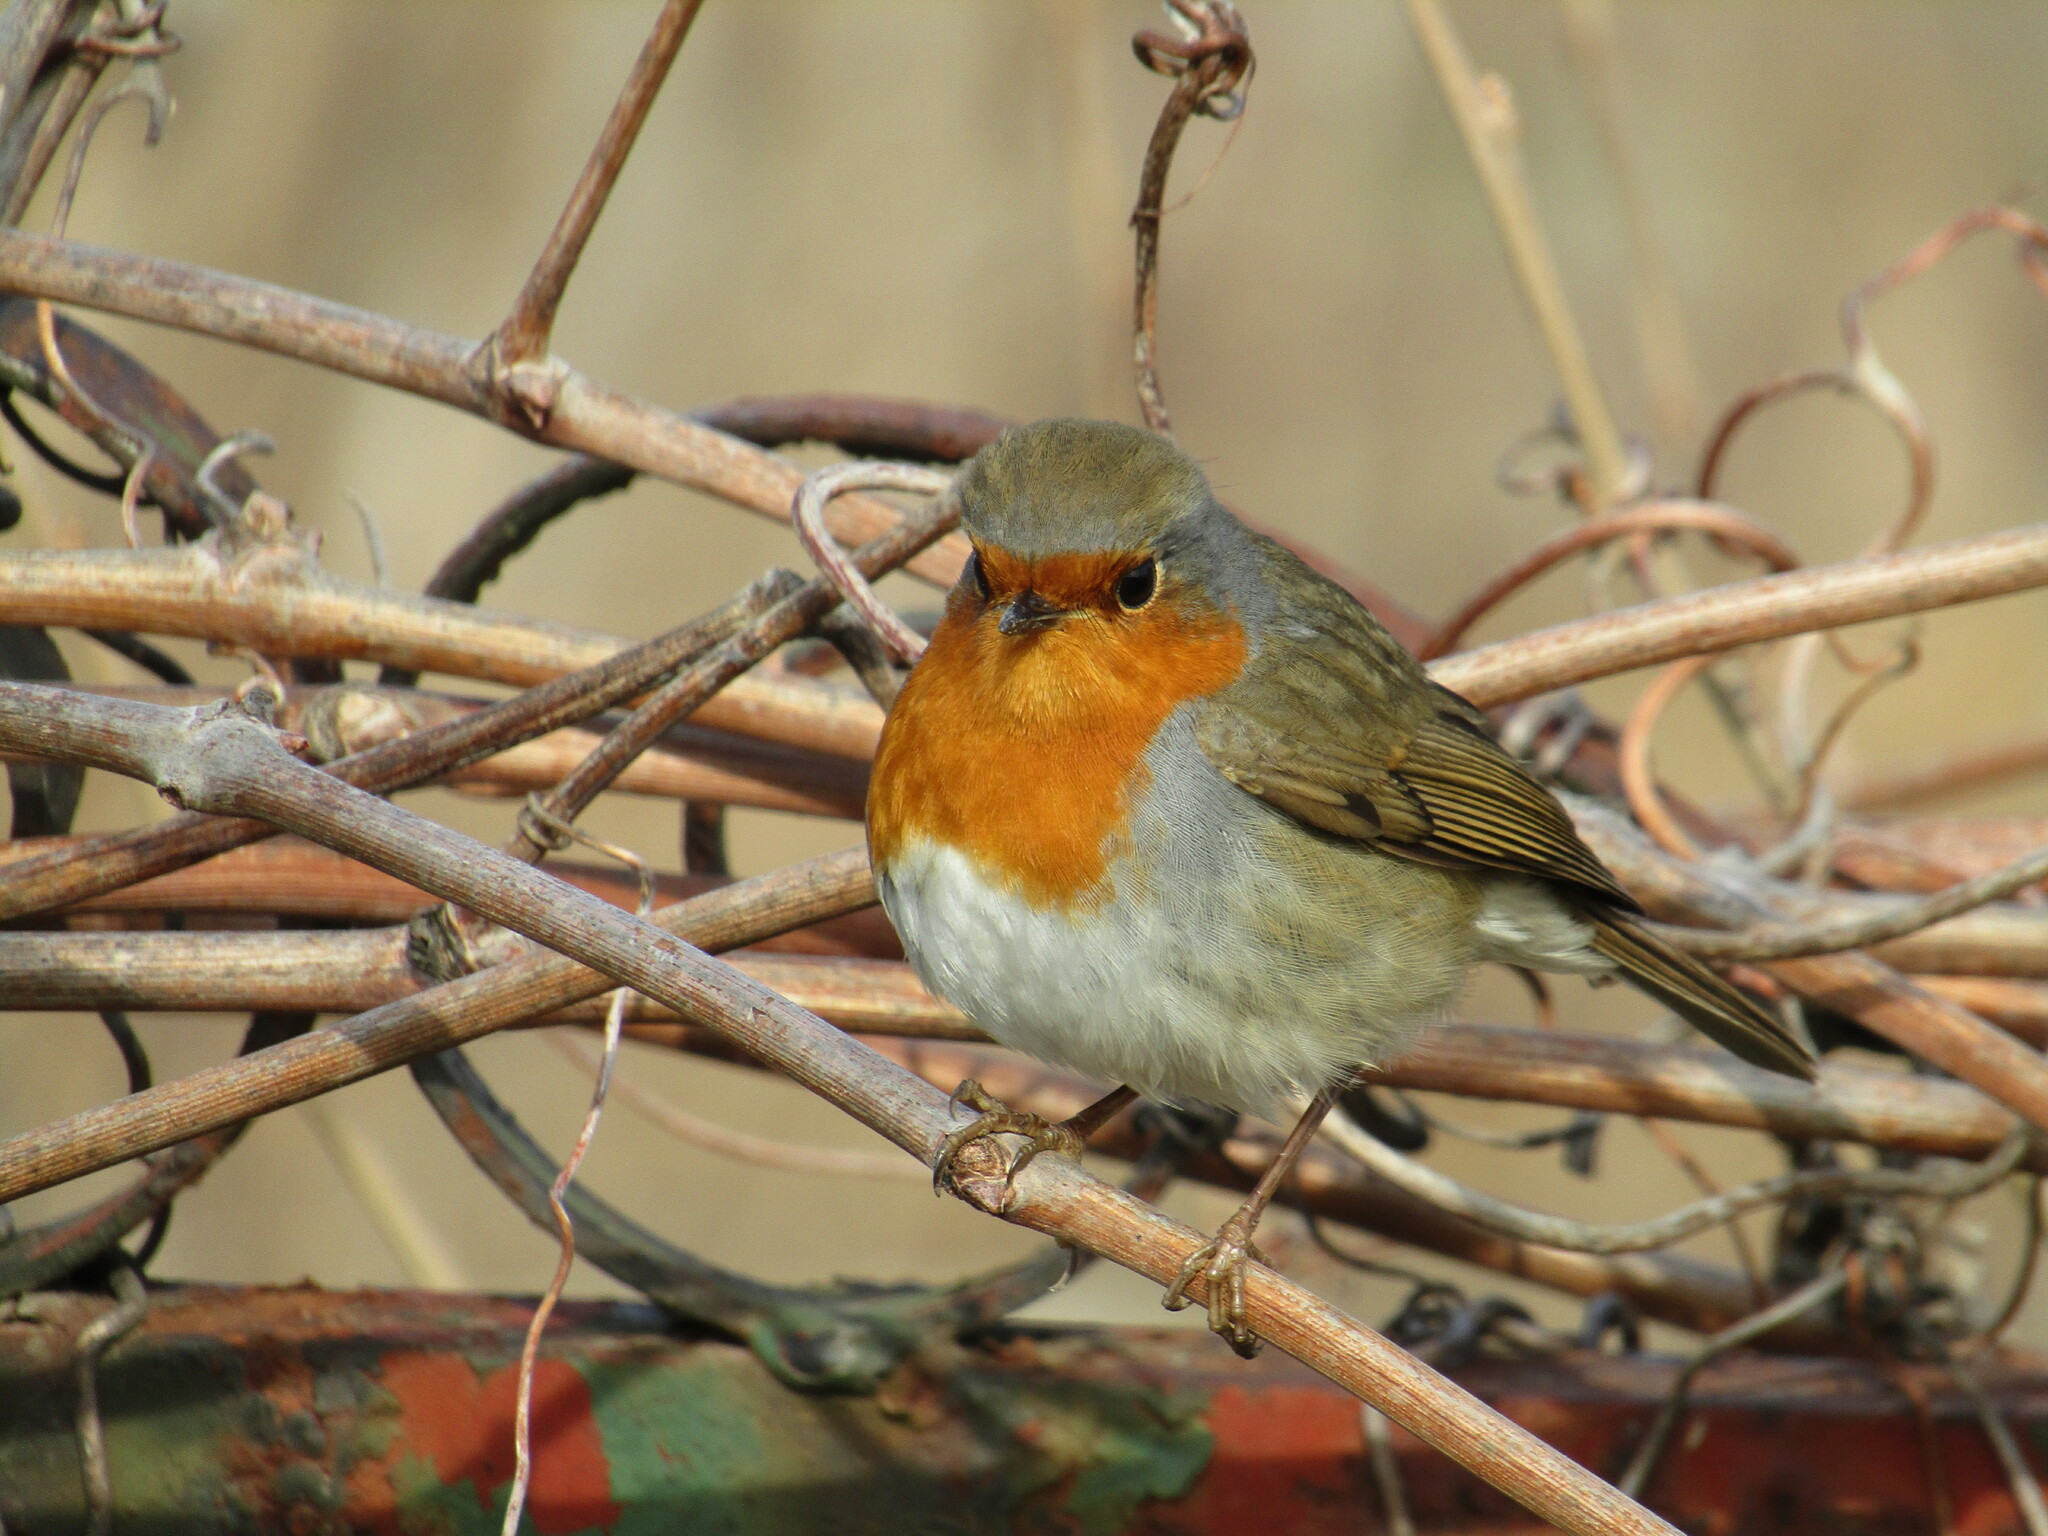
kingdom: Animalia
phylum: Chordata
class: Aves
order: Passeriformes
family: Muscicapidae
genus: Erithacus
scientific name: Erithacus rubecula
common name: European robin
